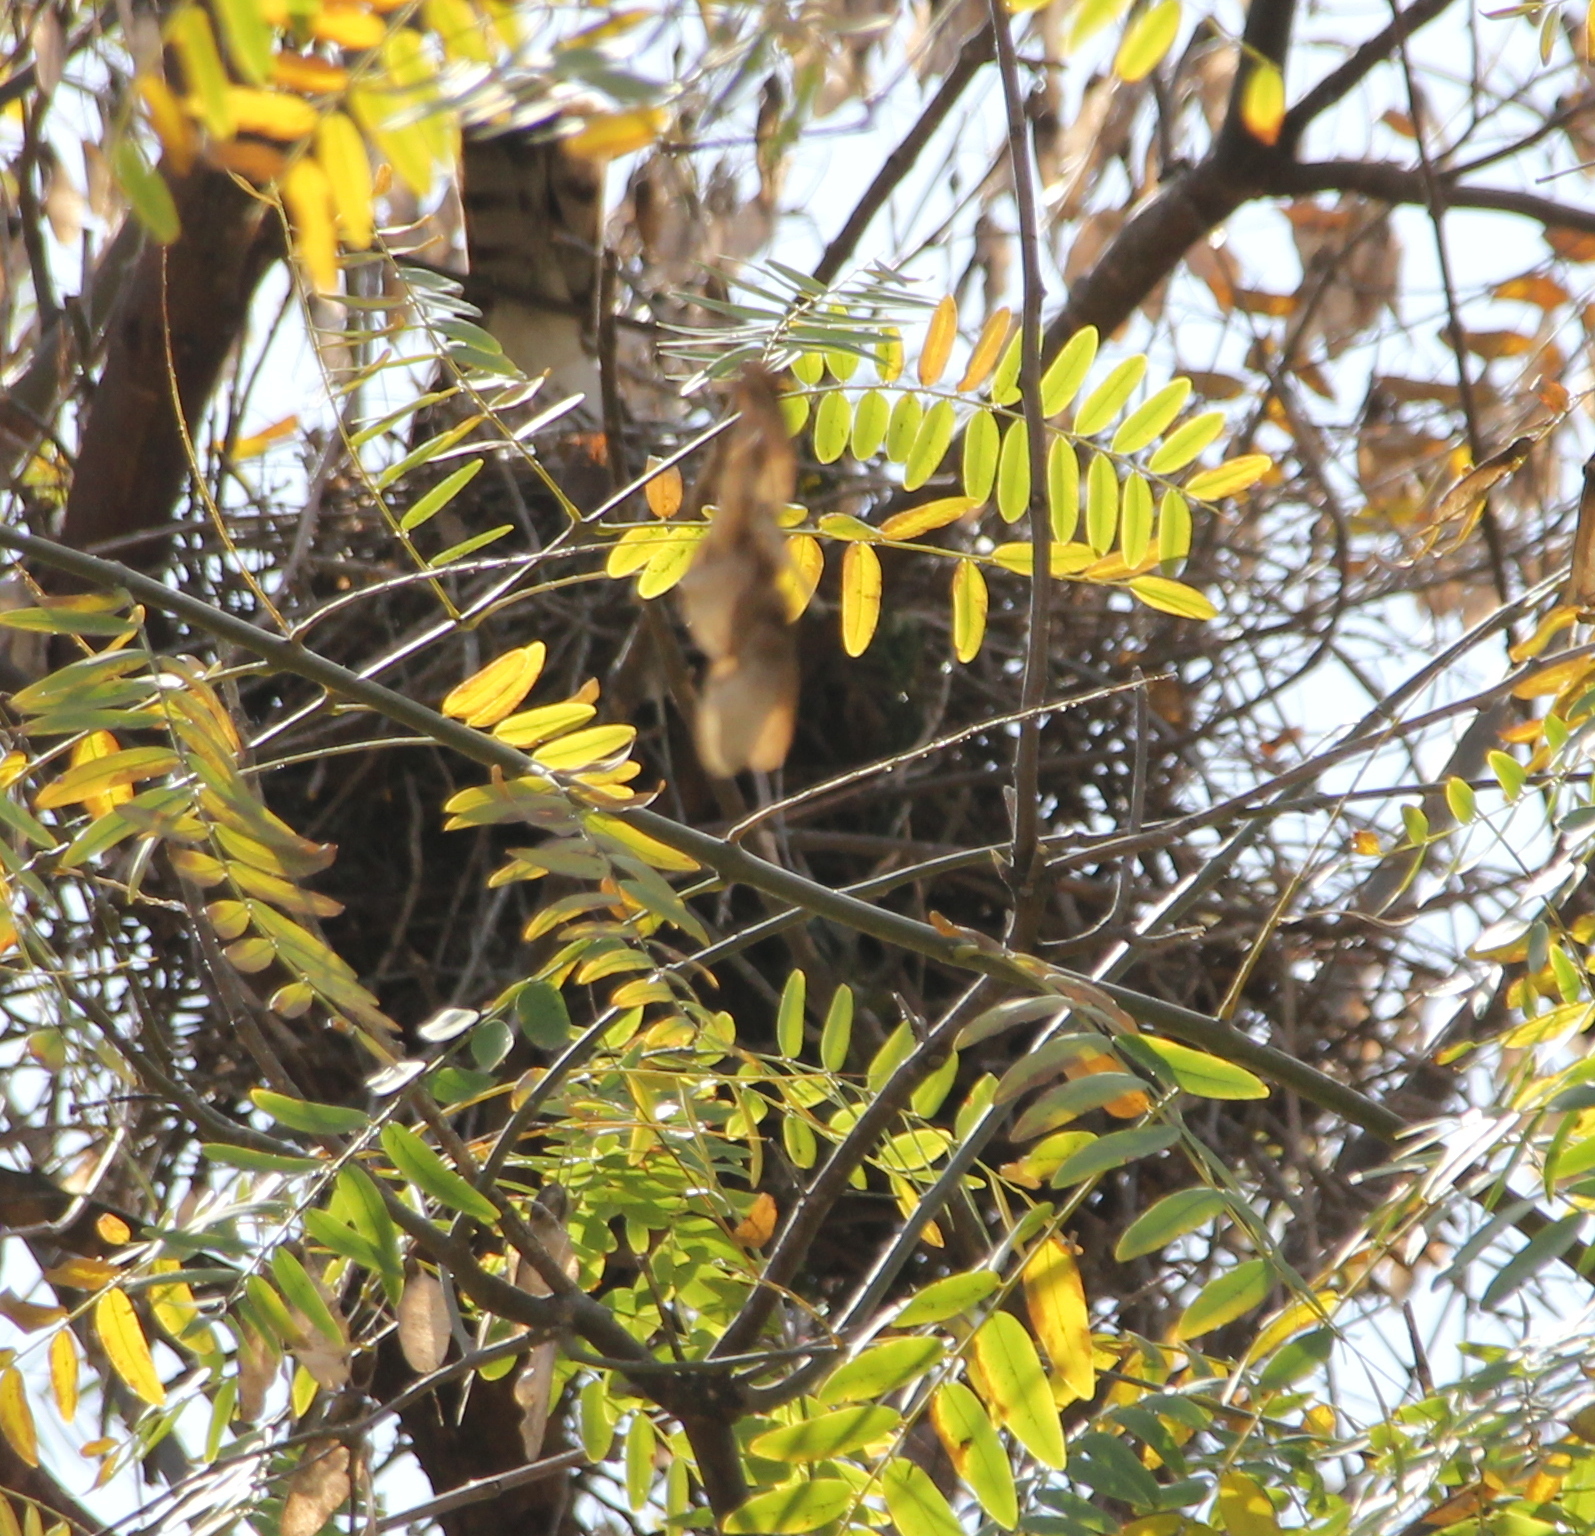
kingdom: Animalia
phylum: Chordata
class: Aves
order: Accipitriformes
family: Accipitridae
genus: Accipiter
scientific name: Accipiter cooperii
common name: Cooper's hawk
